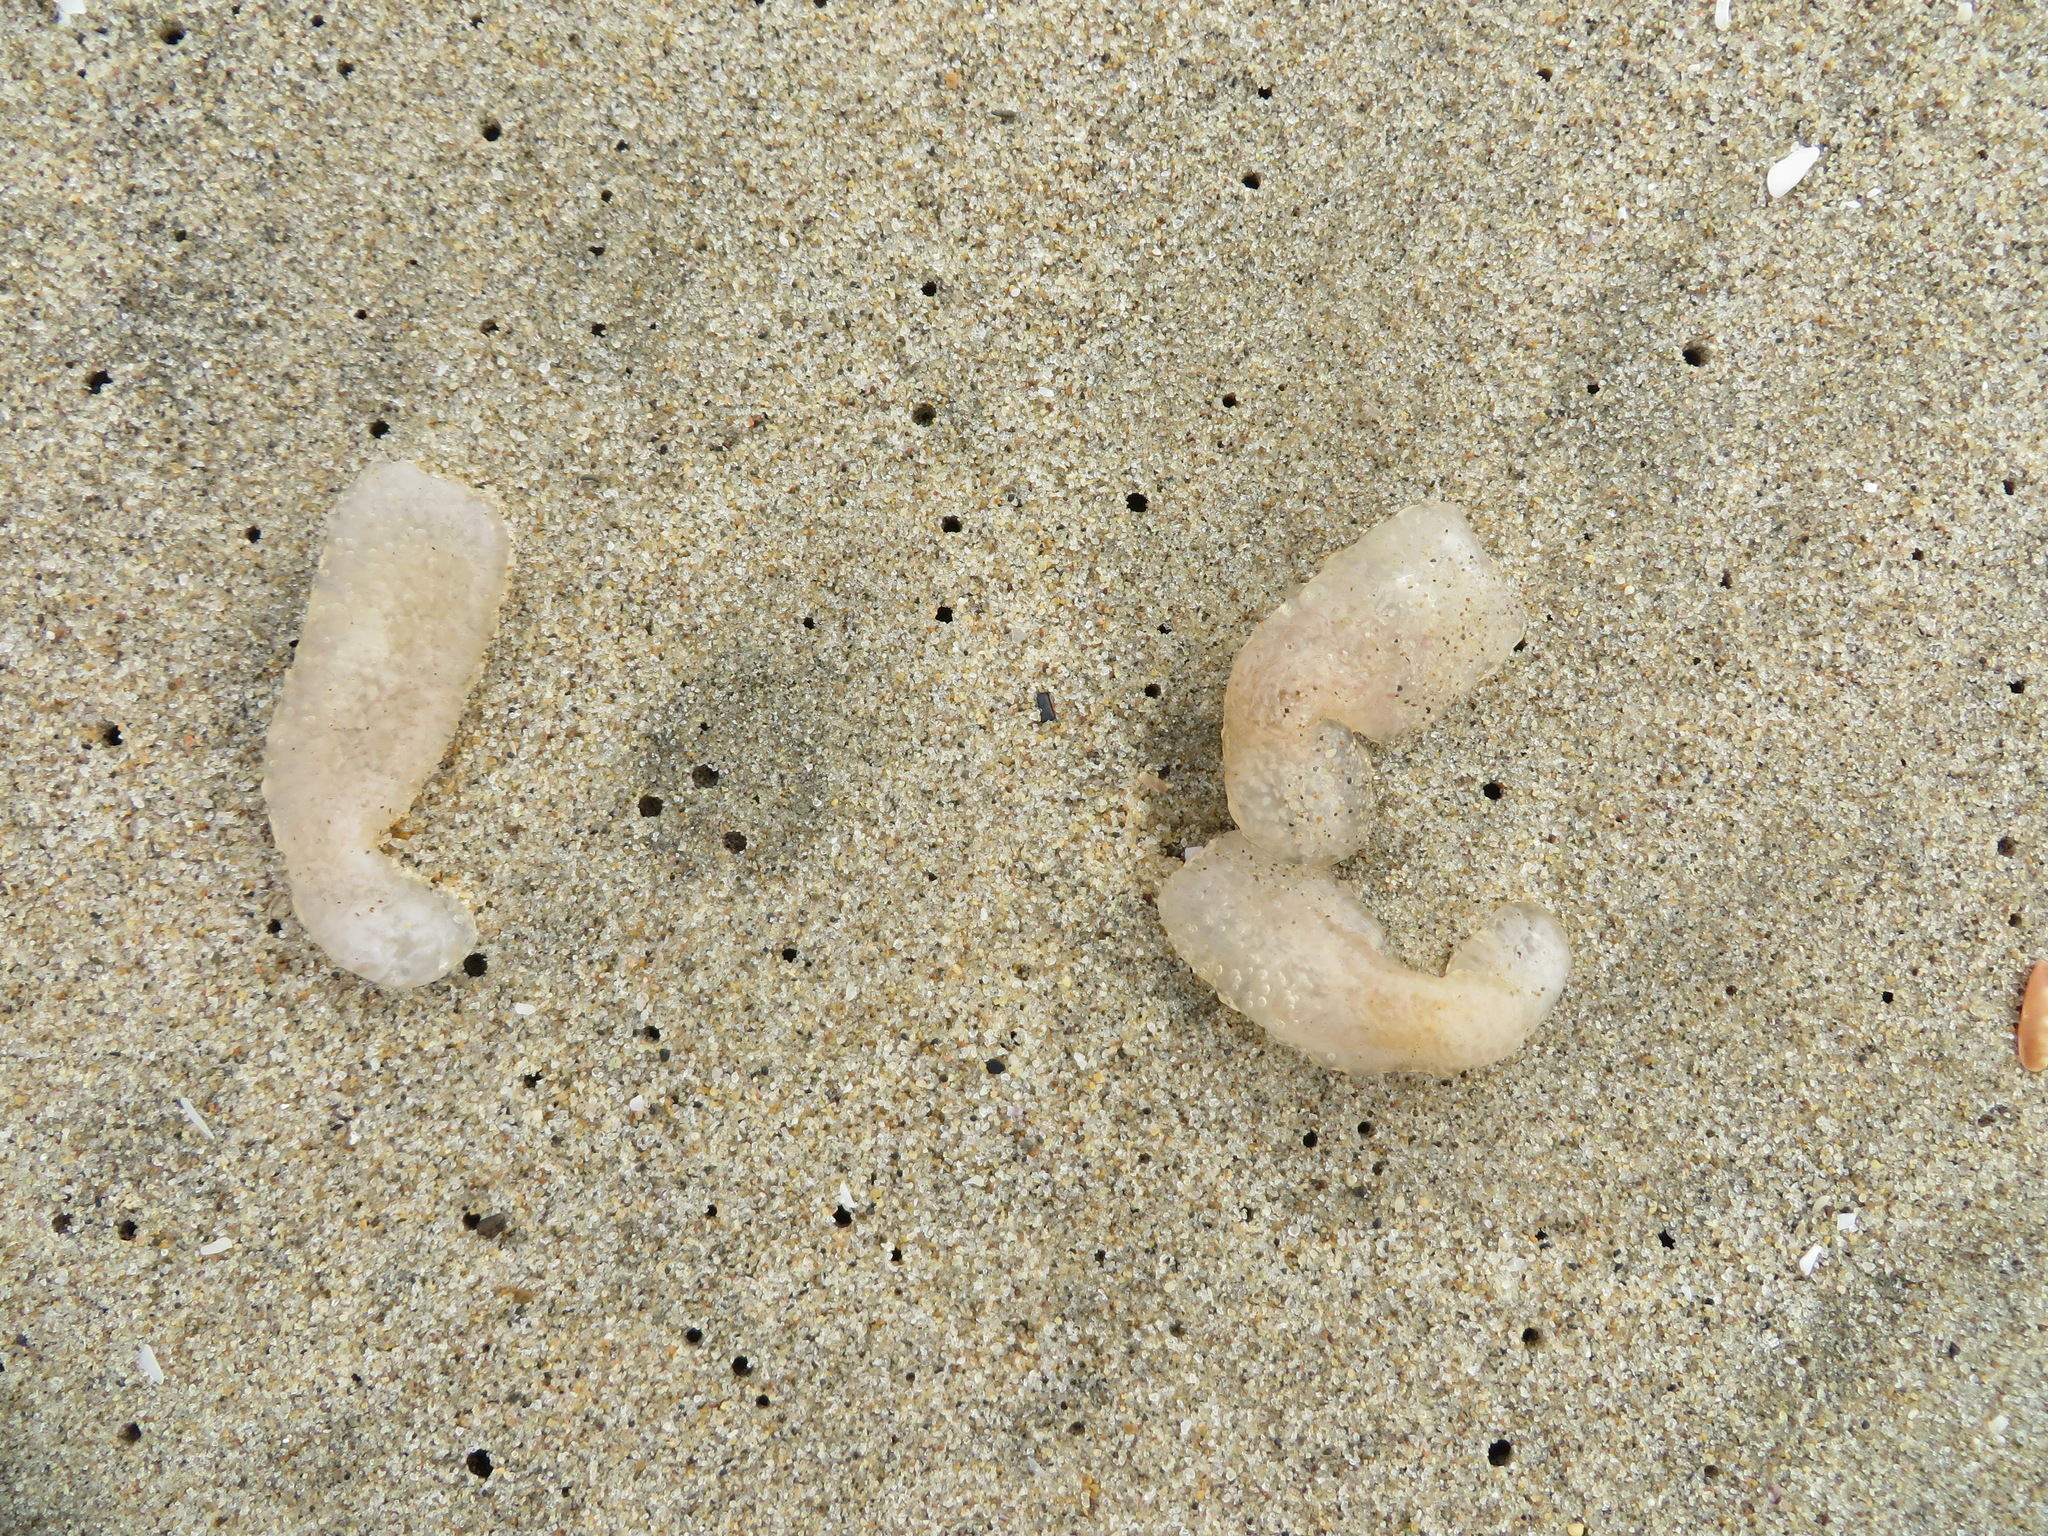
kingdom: Animalia
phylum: Chordata
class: Thaliacea
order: Pyrosomatida
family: Pyrosomatidae
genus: Pyrosoma
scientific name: Pyrosoma atlanticum
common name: Atlantic pyrosomes
